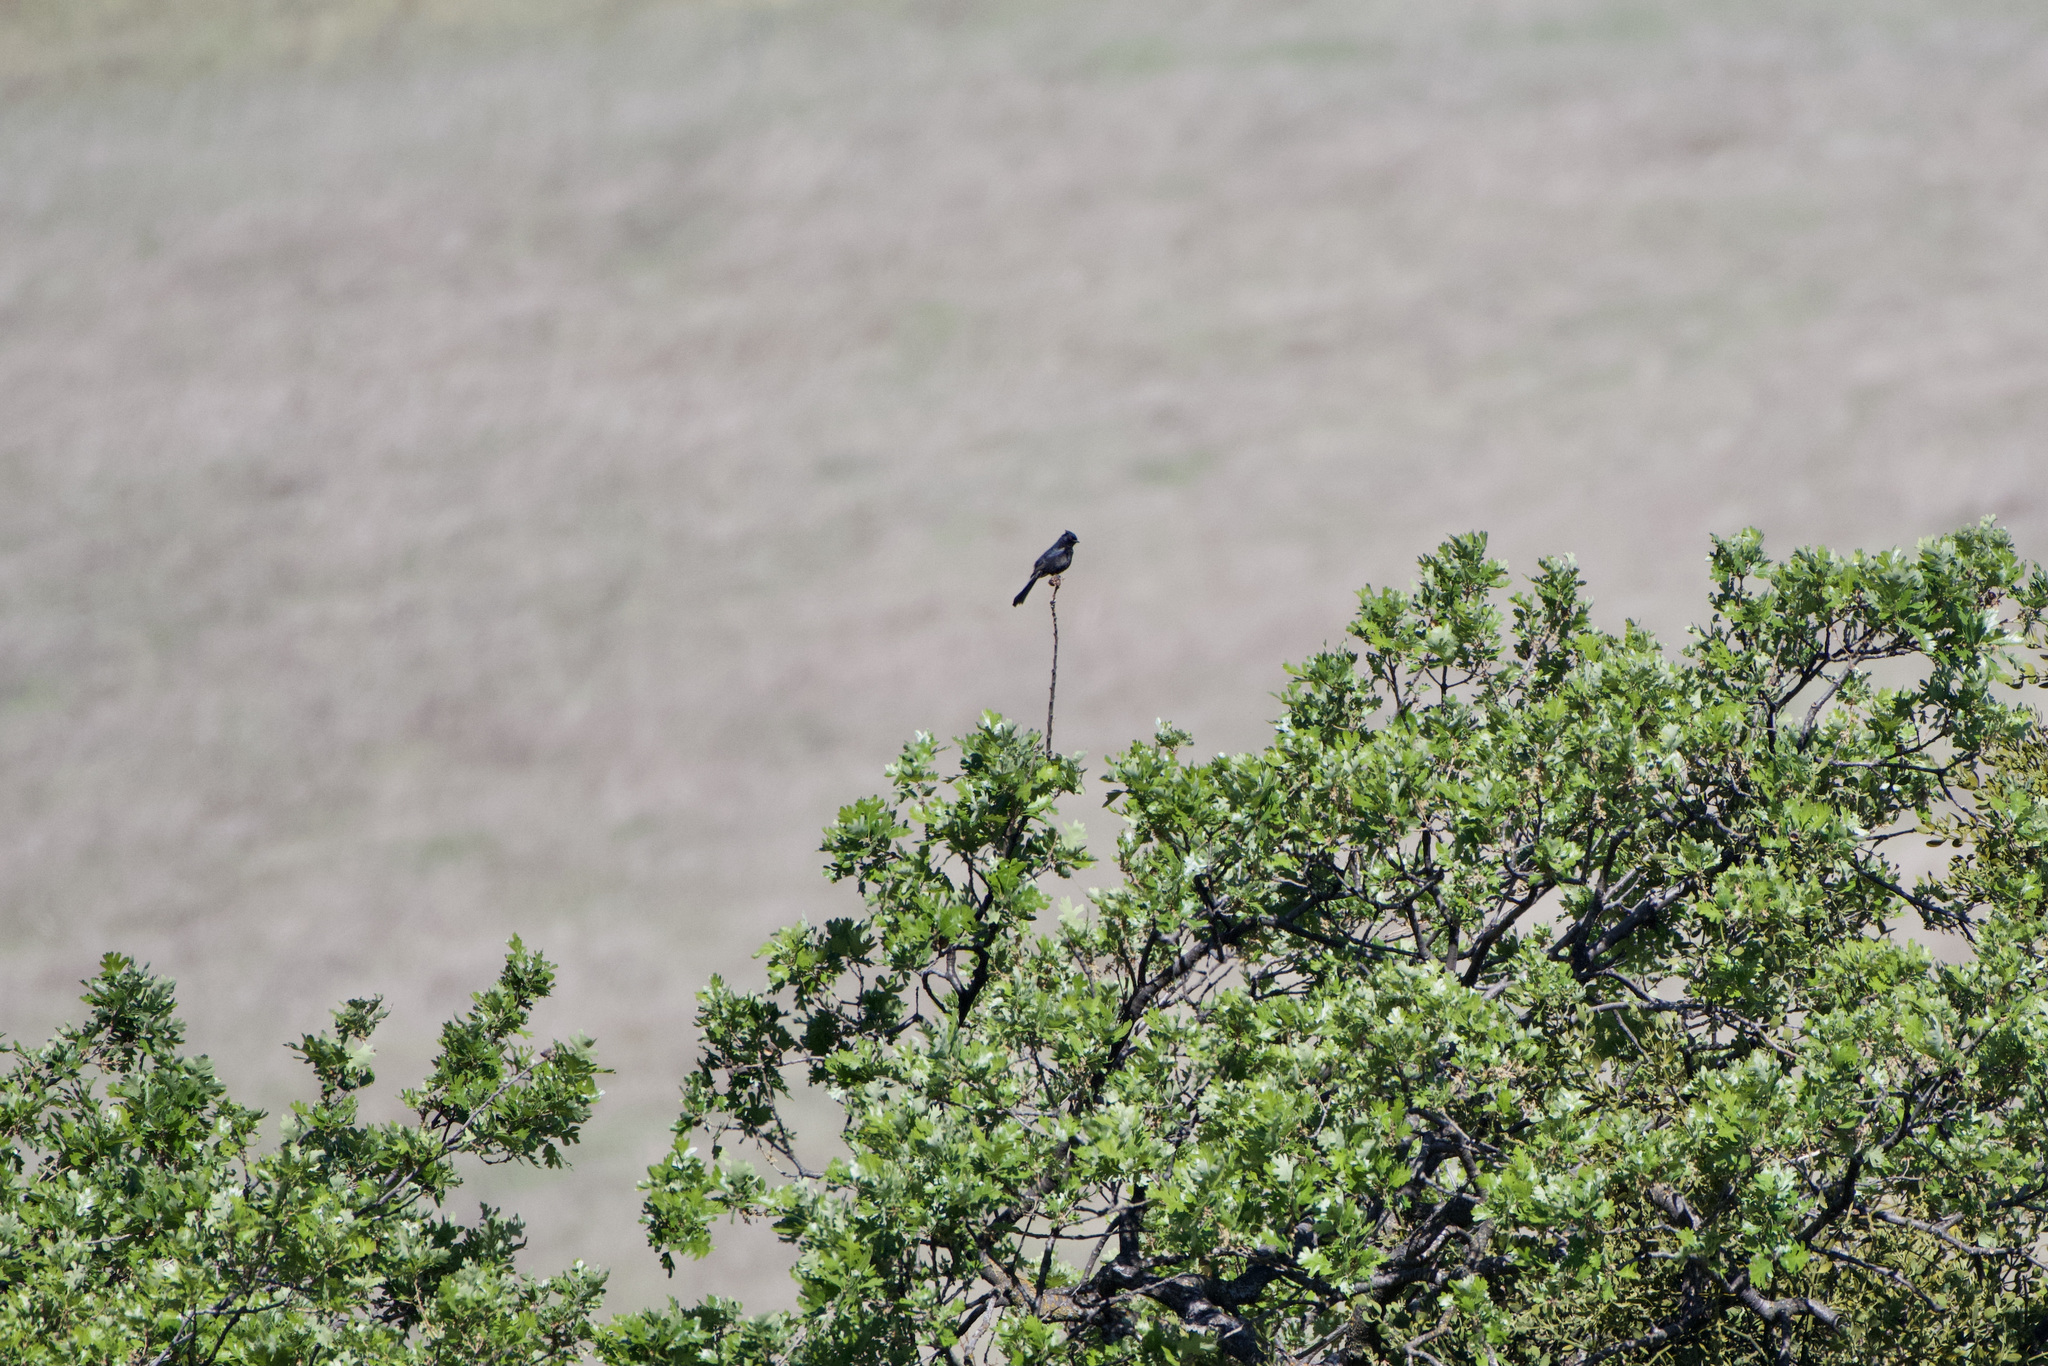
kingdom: Animalia
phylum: Chordata
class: Aves
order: Passeriformes
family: Ptilogonatidae
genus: Phainopepla
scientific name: Phainopepla nitens
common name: Phainopepla
